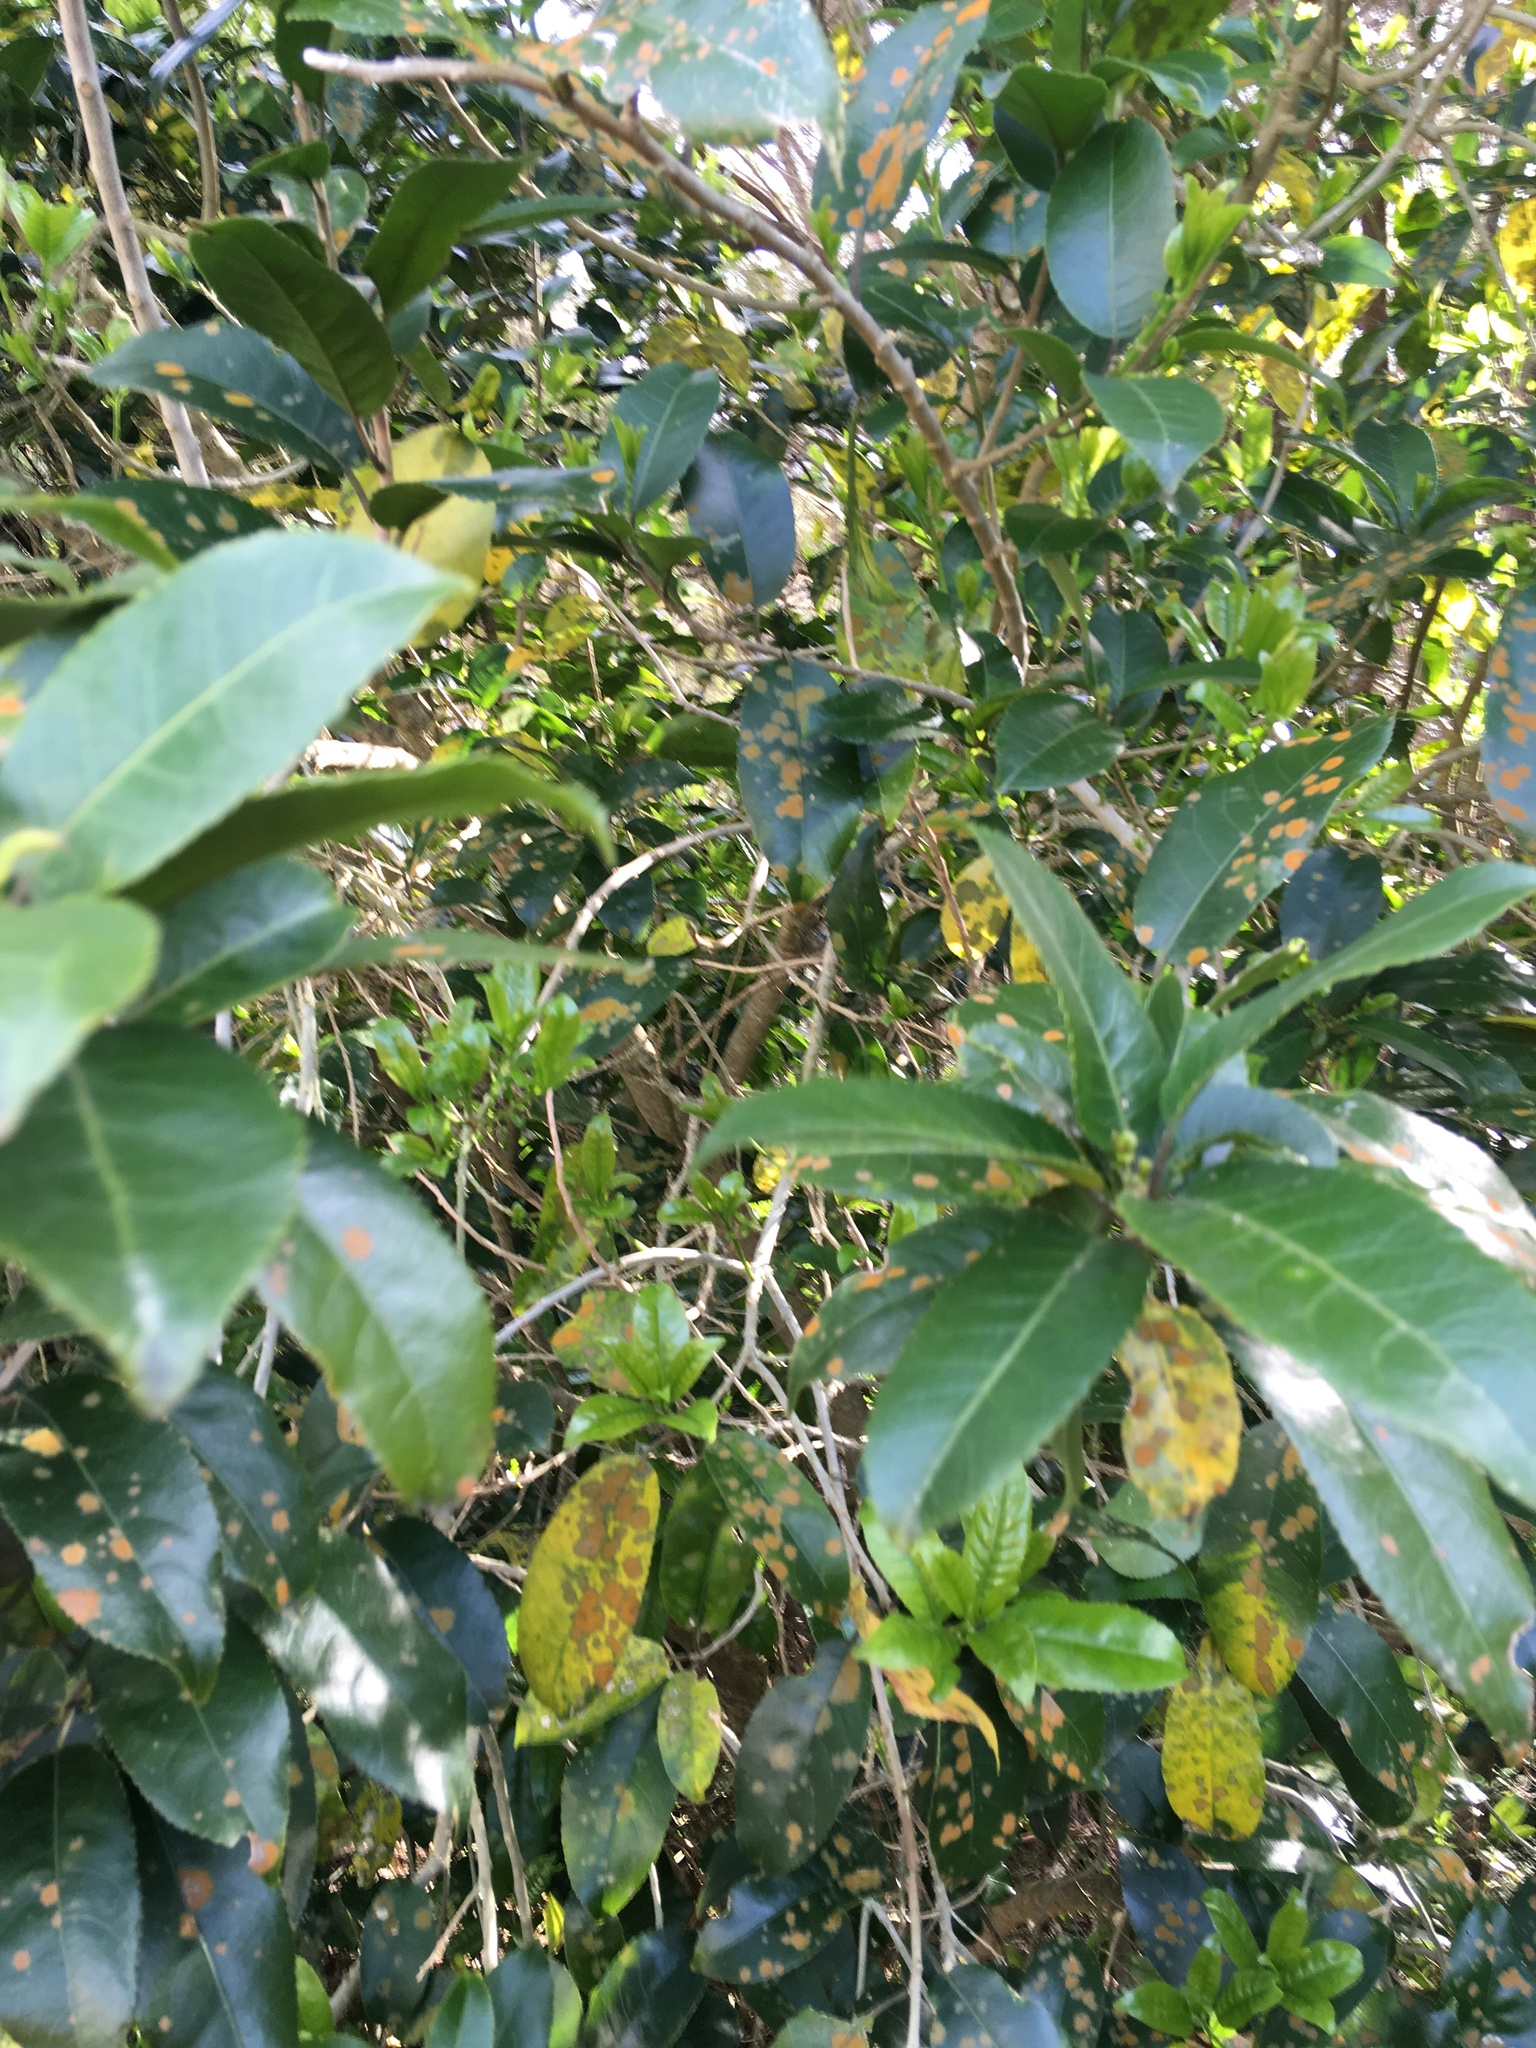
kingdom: Plantae
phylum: Tracheophyta
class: Magnoliopsida
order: Gentianales
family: Rubiaceae
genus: Coprosma
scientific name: Coprosma robusta
